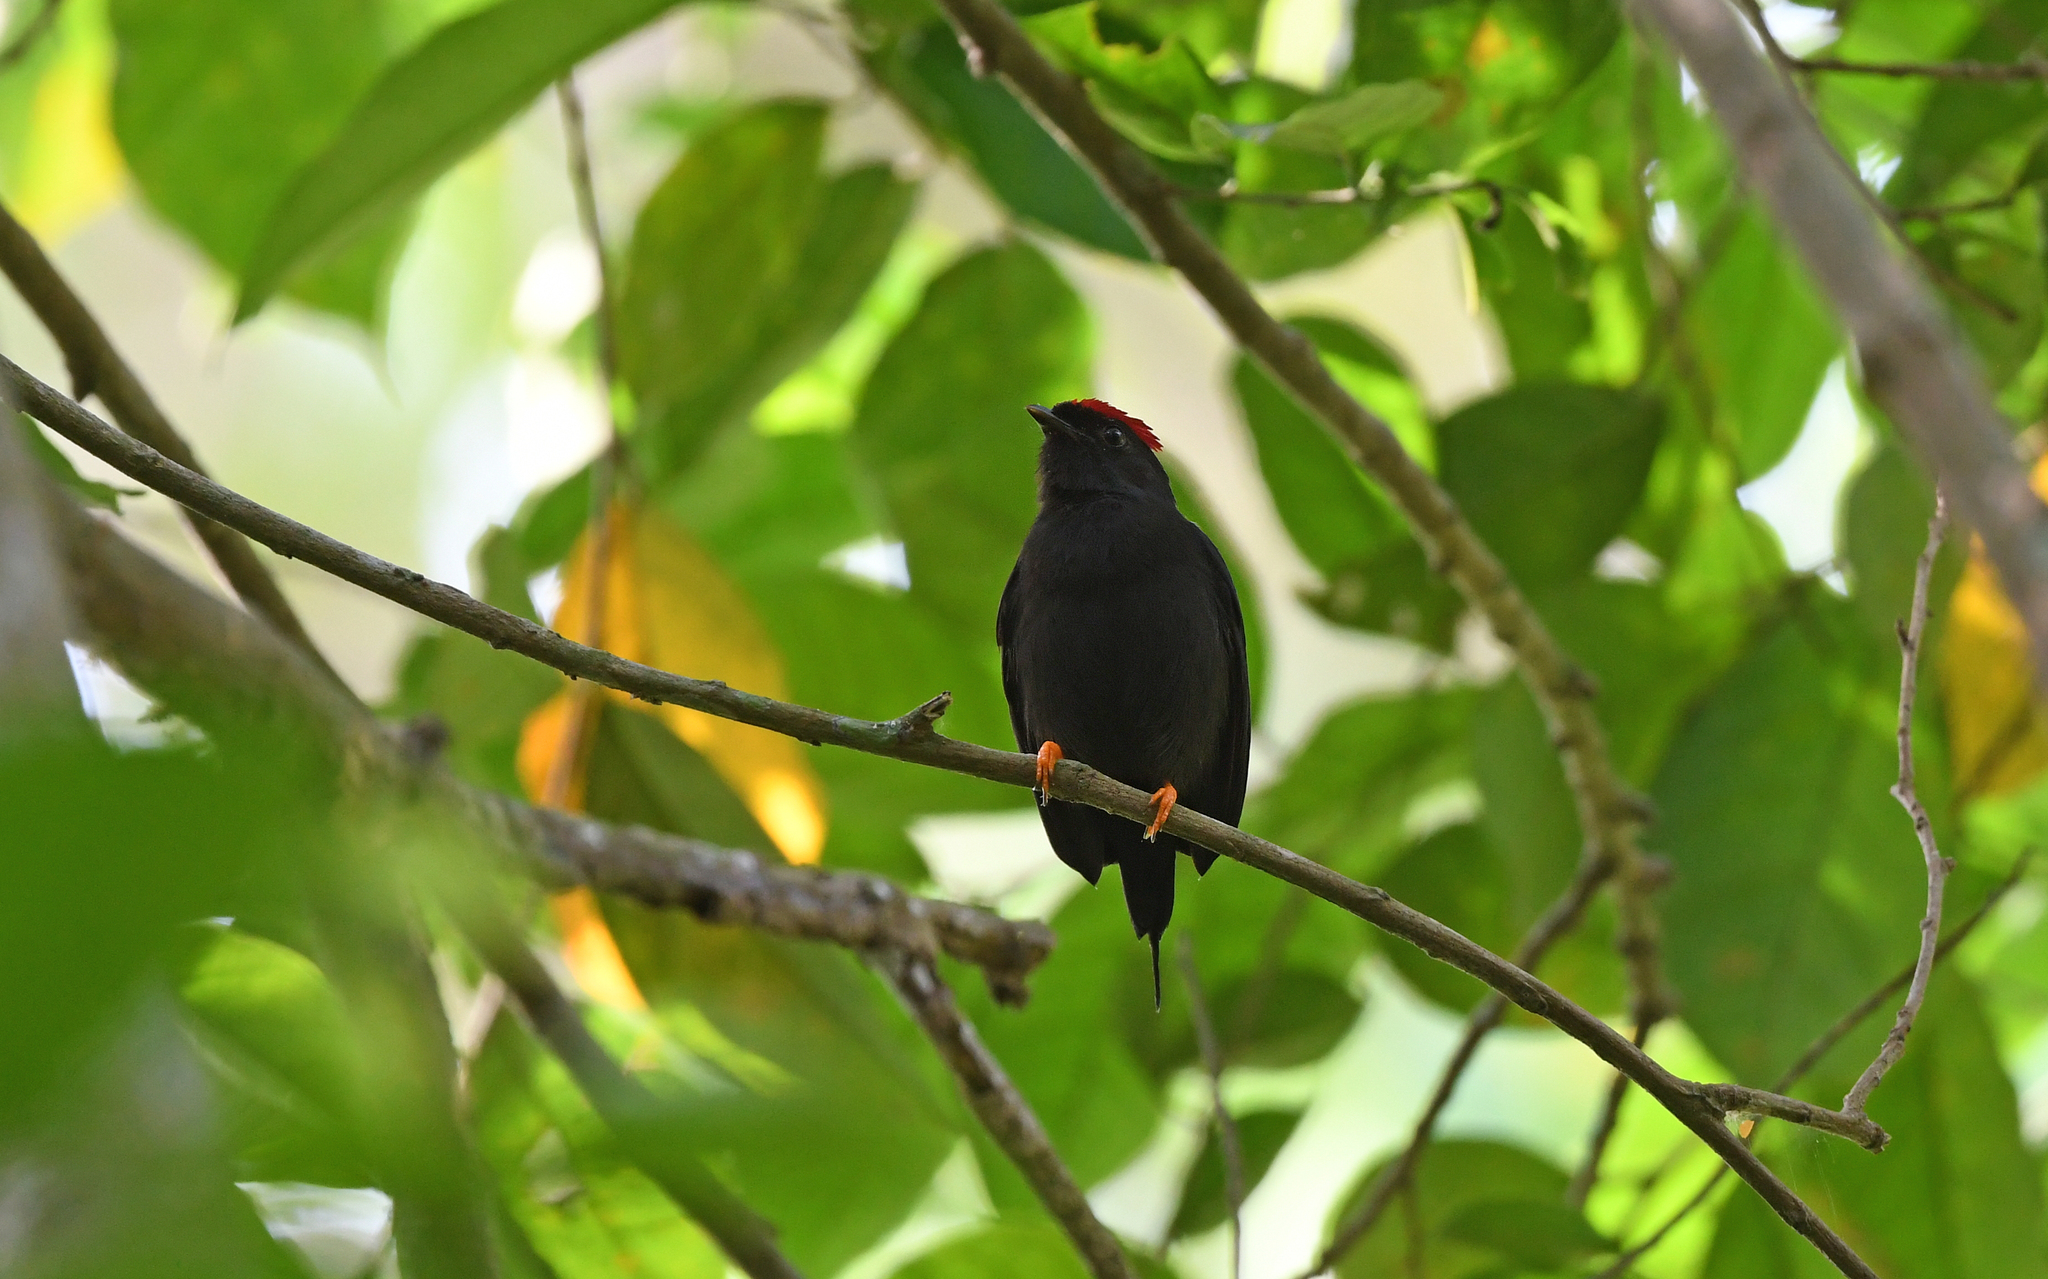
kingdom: Animalia
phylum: Chordata
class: Aves
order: Passeriformes
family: Pipridae
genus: Chiroxiphia
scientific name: Chiroxiphia lanceolata
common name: Lance-tailed manakin
